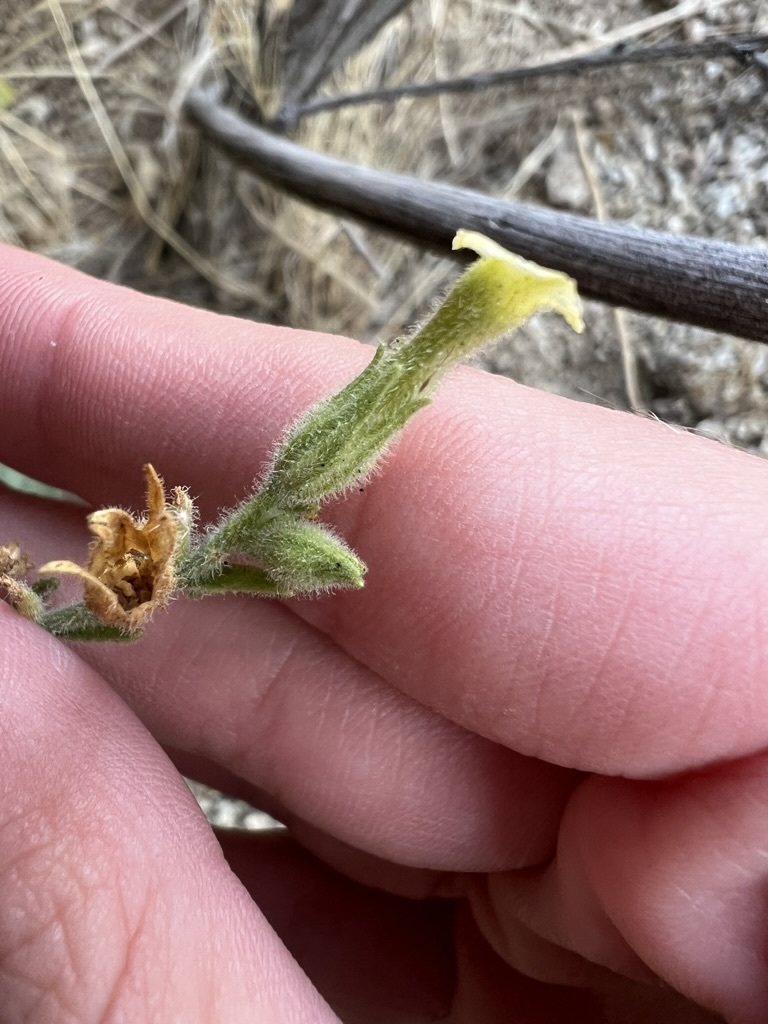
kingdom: Plantae
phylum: Tracheophyta
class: Magnoliopsida
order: Solanales
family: Solanaceae
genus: Nicotiana
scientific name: Nicotiana obtusifolia
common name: Desert tobacco
